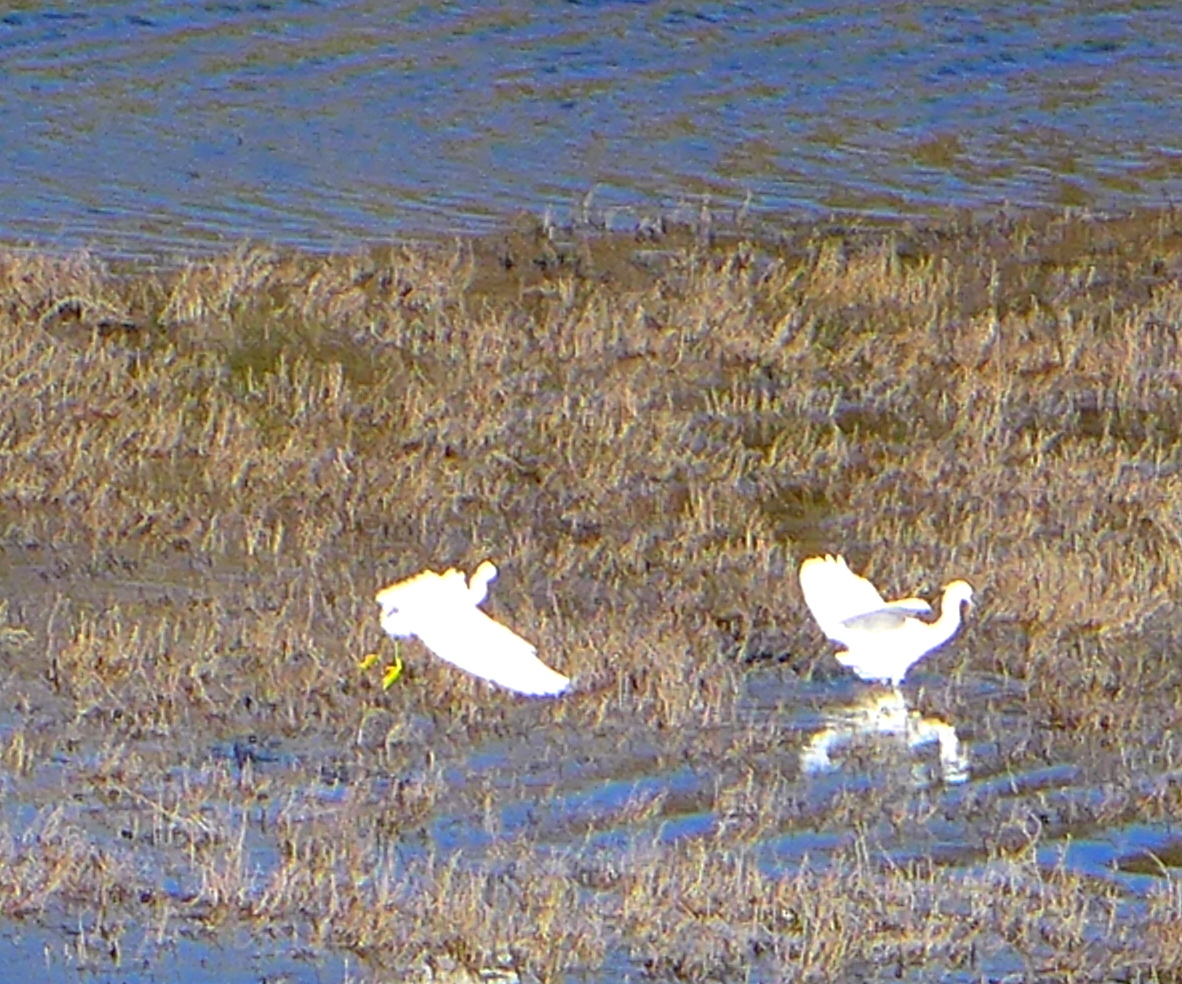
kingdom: Animalia
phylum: Chordata
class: Aves
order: Pelecaniformes
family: Ardeidae
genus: Egretta
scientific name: Egretta thula
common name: Snowy egret
